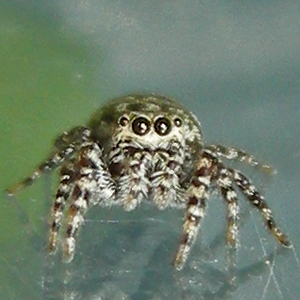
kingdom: Animalia
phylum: Arthropoda
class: Arachnida
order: Araneae
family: Salticidae
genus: Pelegrina
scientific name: Pelegrina galathea
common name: Jumping spiders
